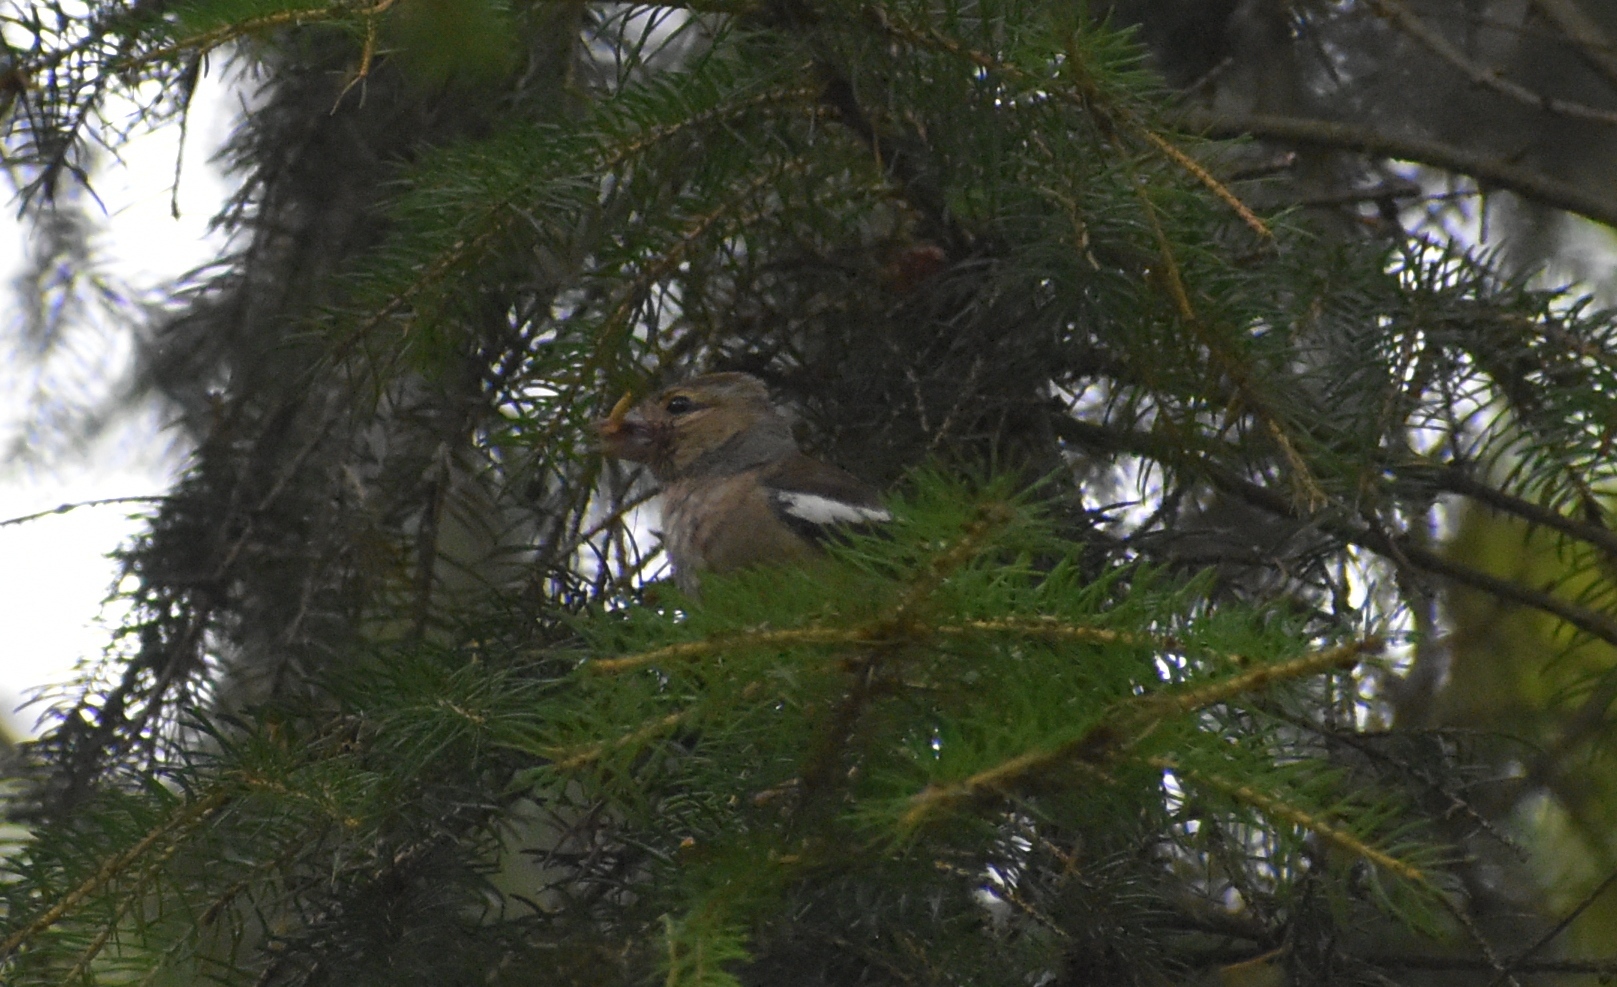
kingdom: Animalia
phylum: Chordata
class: Aves
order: Passeriformes
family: Fringillidae
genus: Fringilla
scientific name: Fringilla coelebs
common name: Common chaffinch
